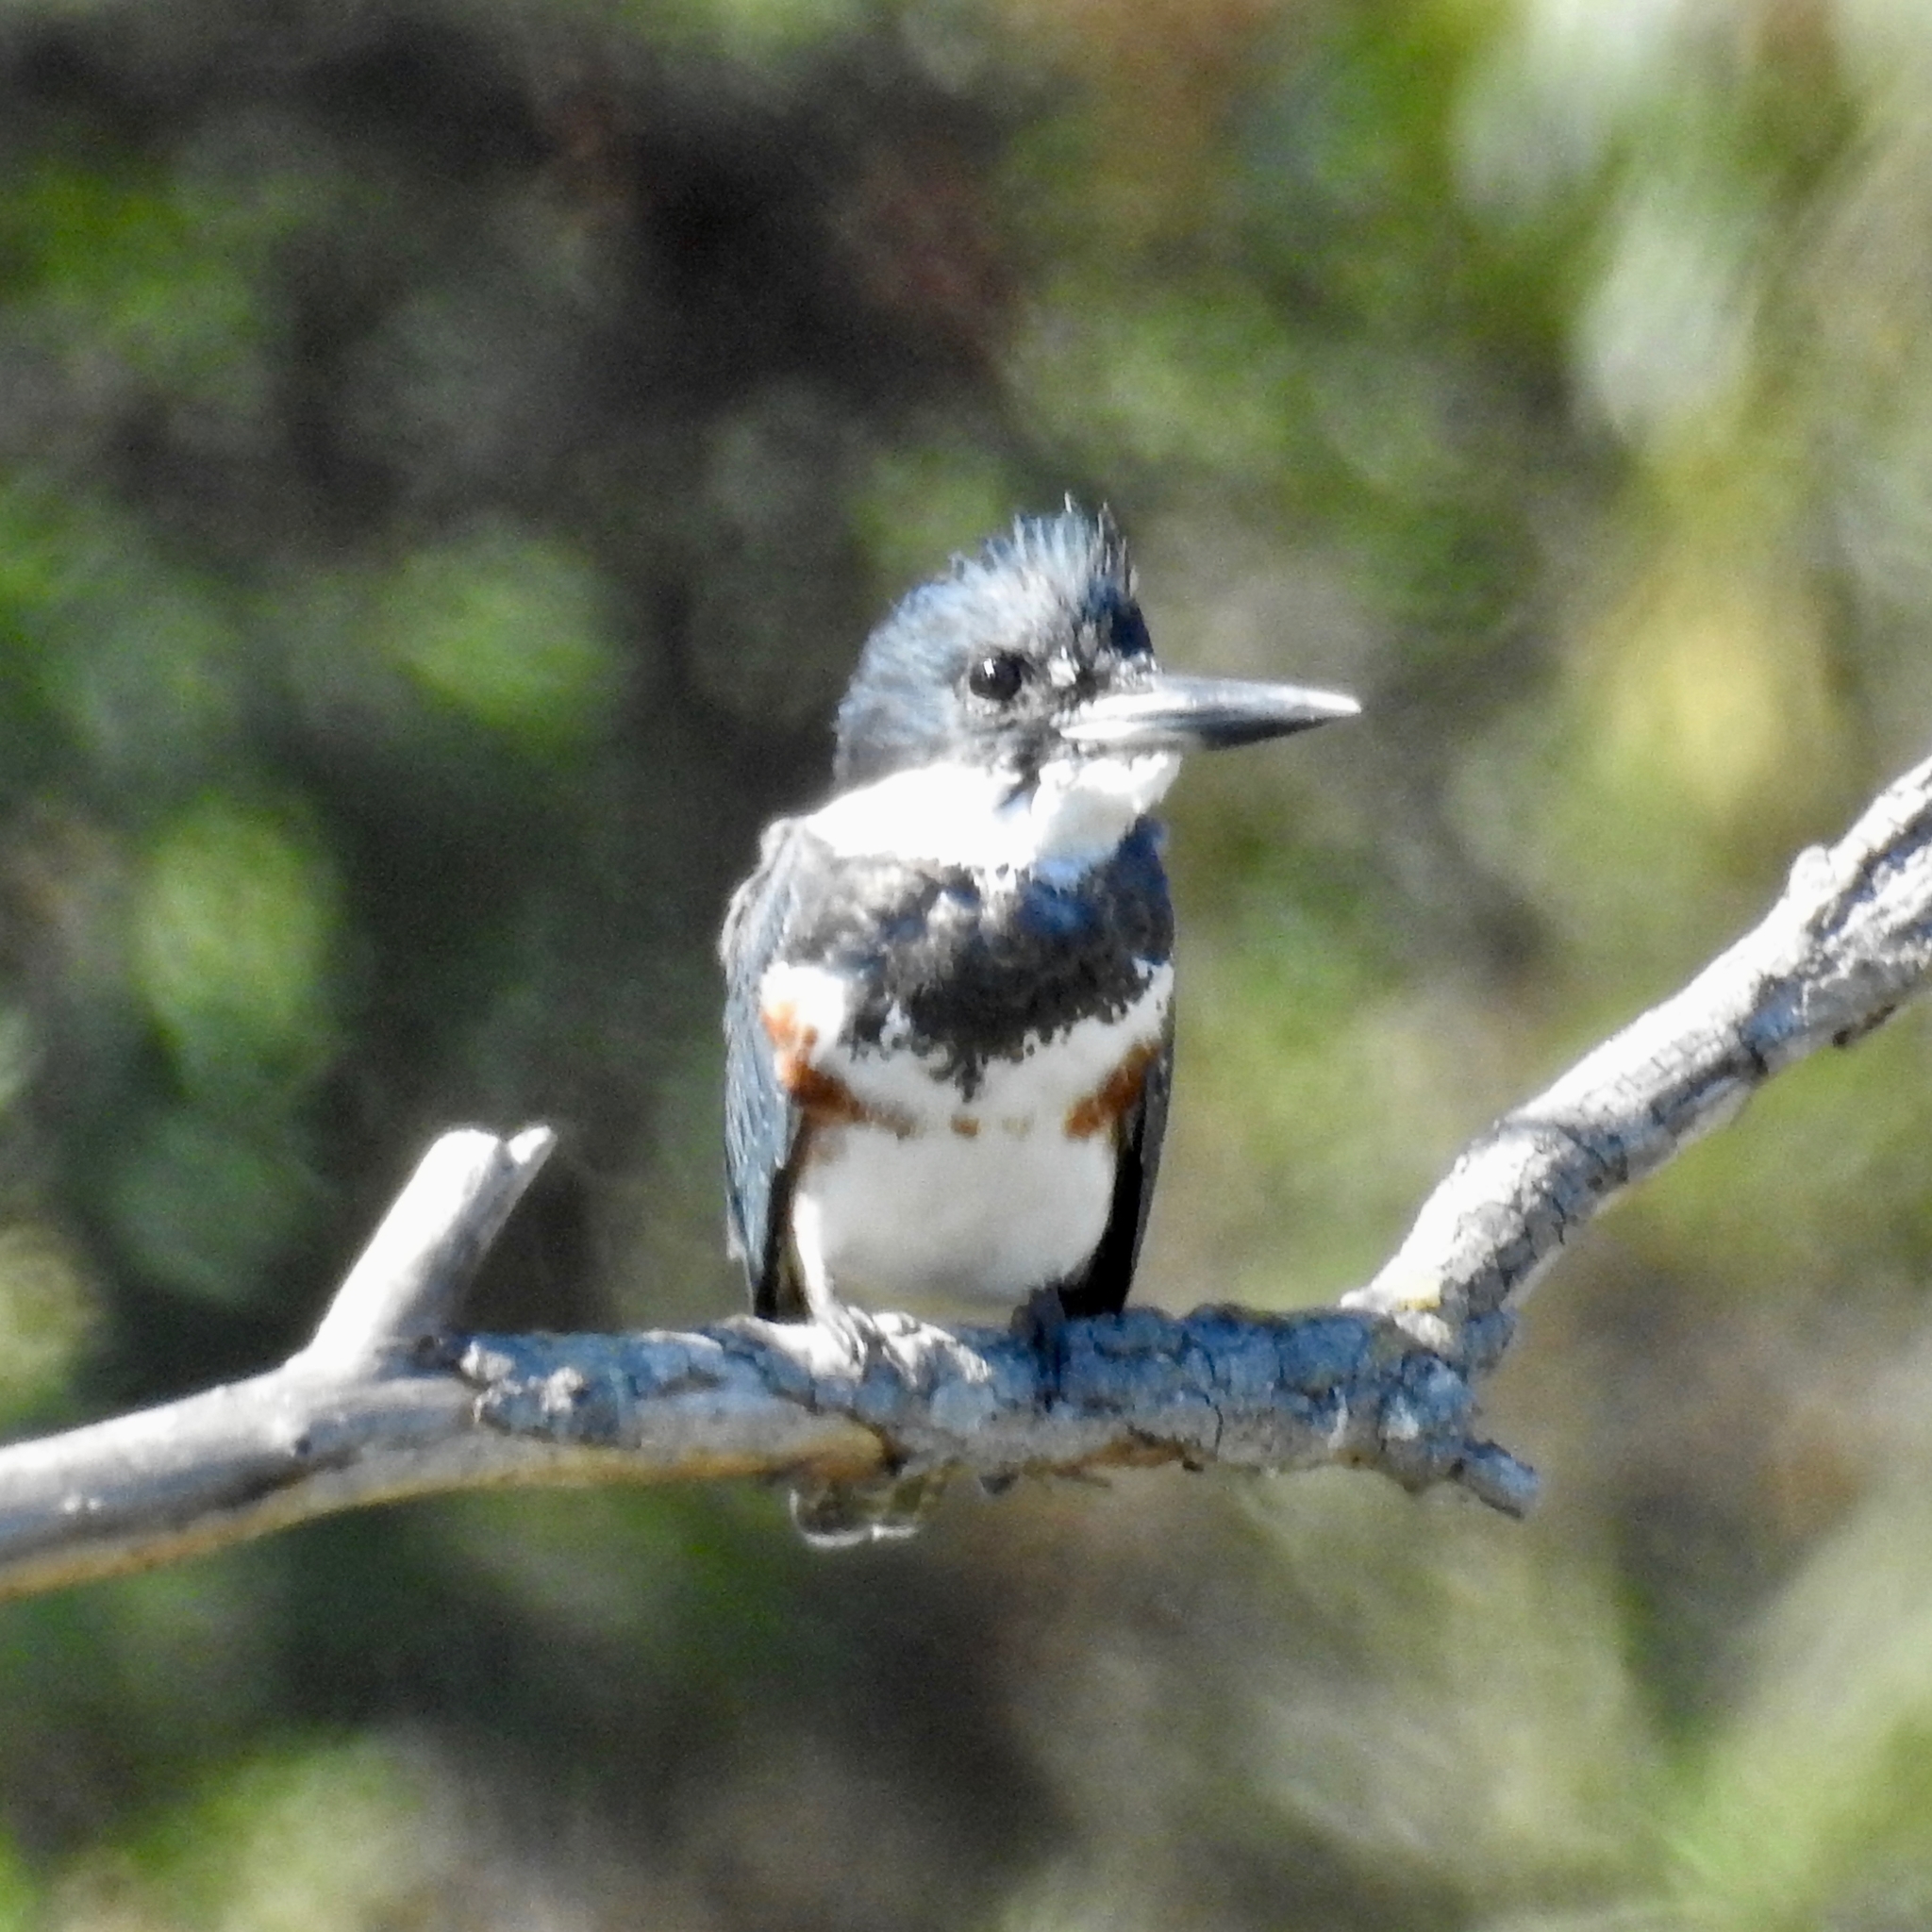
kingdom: Animalia
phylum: Chordata
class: Aves
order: Coraciiformes
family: Alcedinidae
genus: Megaceryle
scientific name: Megaceryle alcyon
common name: Belted kingfisher
